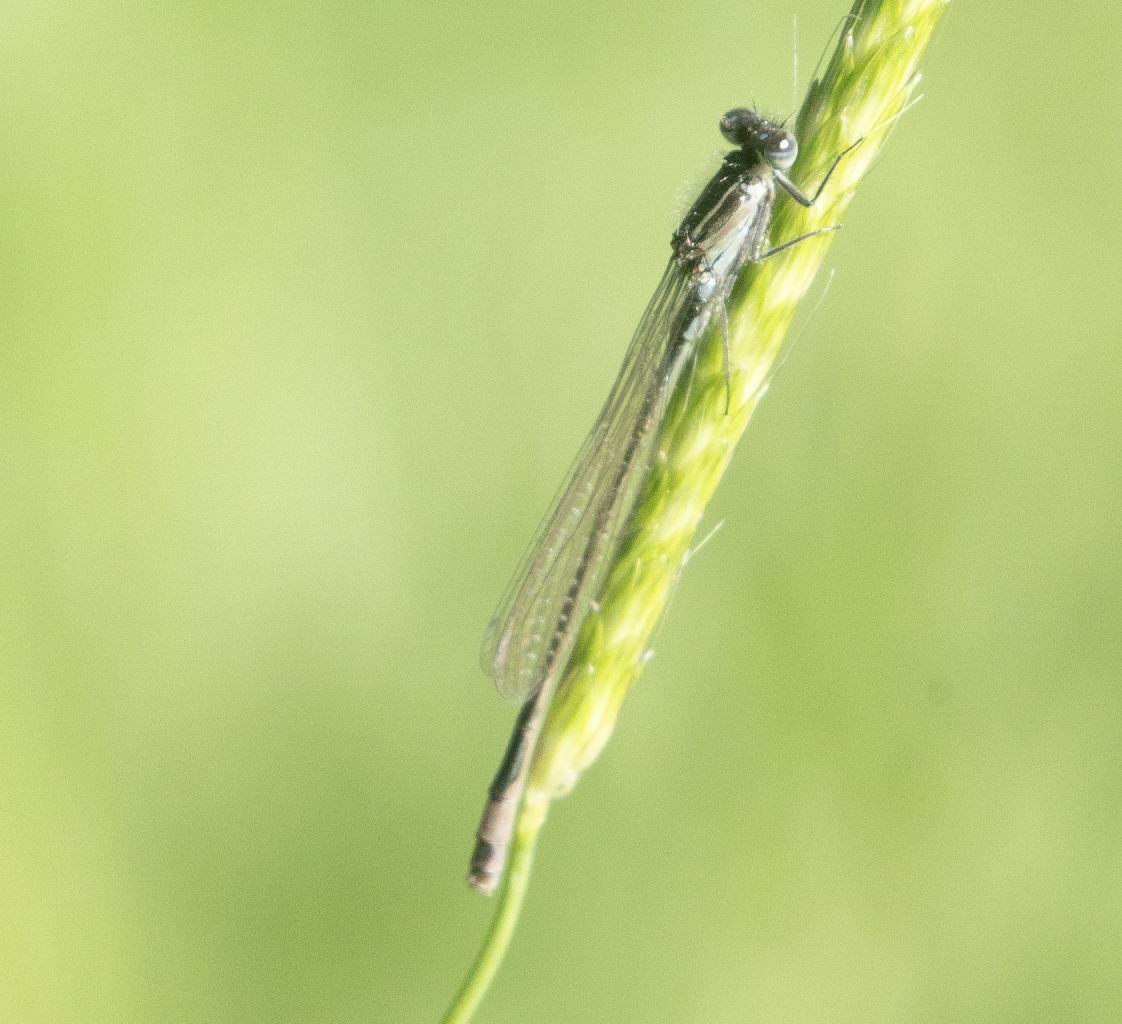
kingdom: Animalia
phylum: Arthropoda
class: Insecta
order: Odonata
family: Coenagrionidae
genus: Ischnura
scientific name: Ischnura elegans
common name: Blue-tailed damselfly
